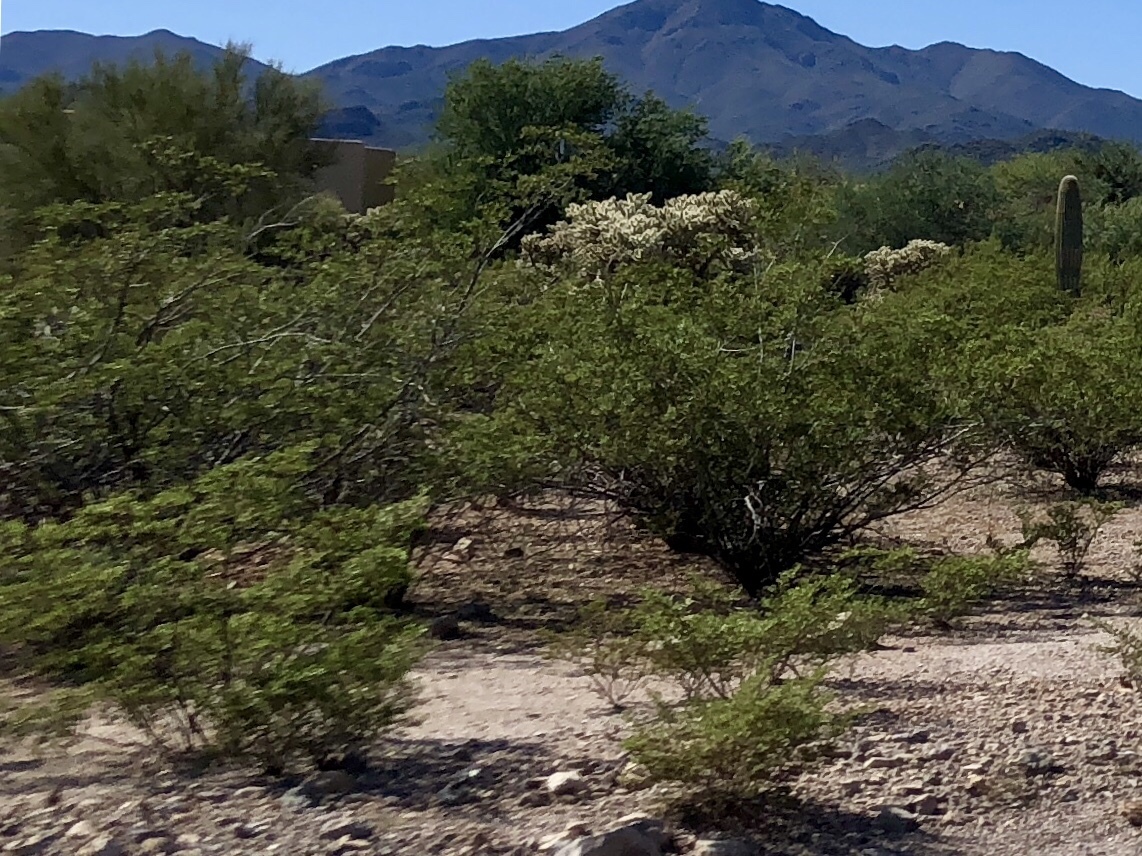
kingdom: Plantae
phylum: Tracheophyta
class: Magnoliopsida
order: Zygophyllales
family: Zygophyllaceae
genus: Larrea
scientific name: Larrea tridentata
